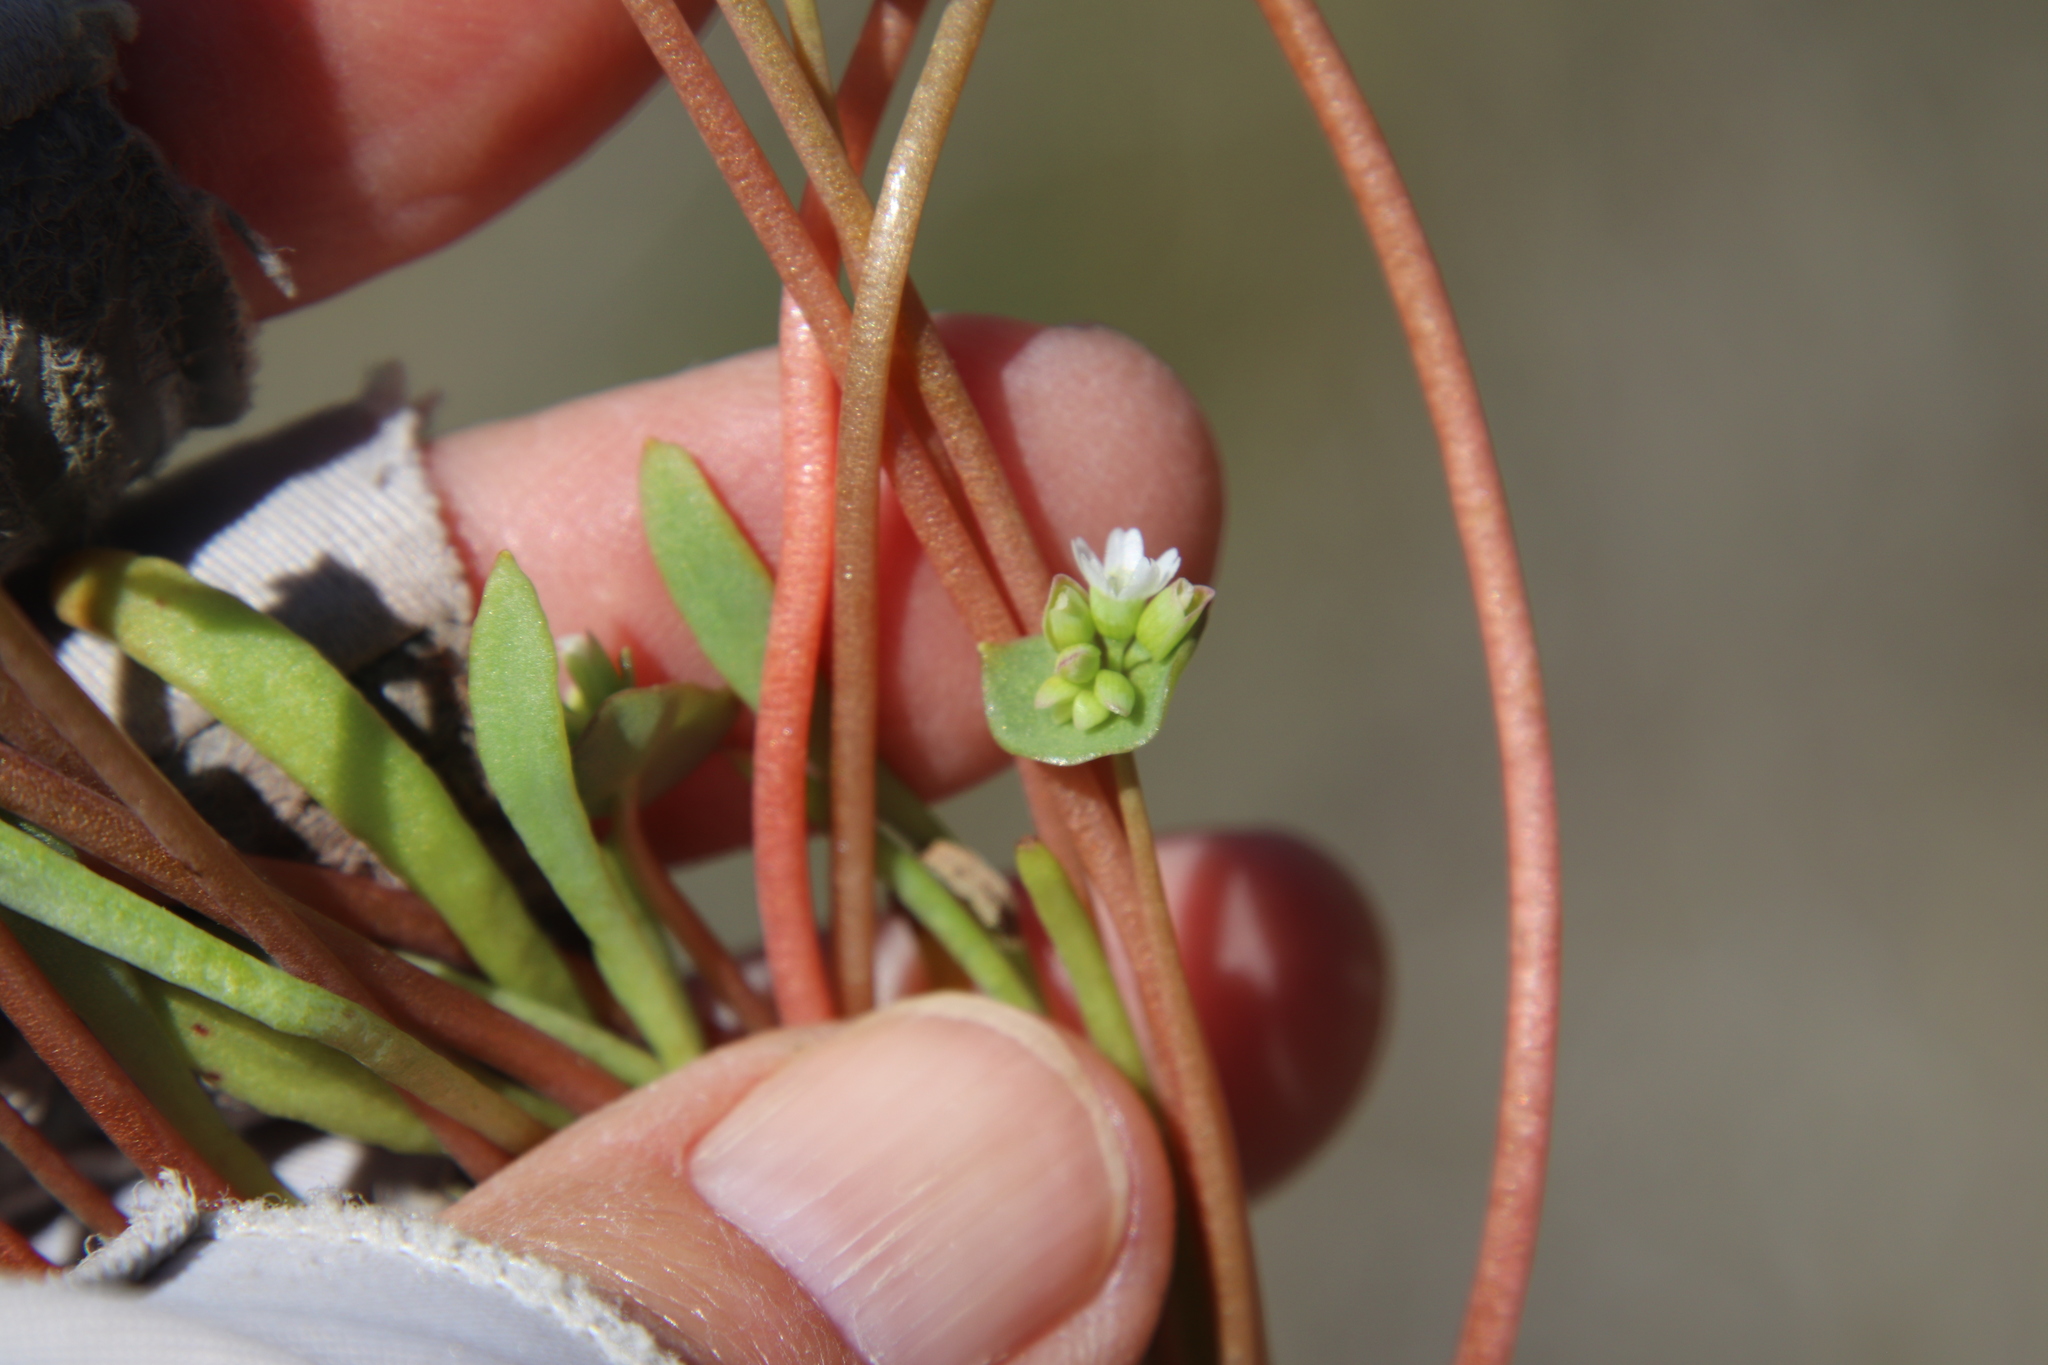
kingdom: Plantae
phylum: Tracheophyta
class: Magnoliopsida
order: Caryophyllales
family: Montiaceae
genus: Claytonia
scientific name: Claytonia parviflora
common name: Indian-lettuce
